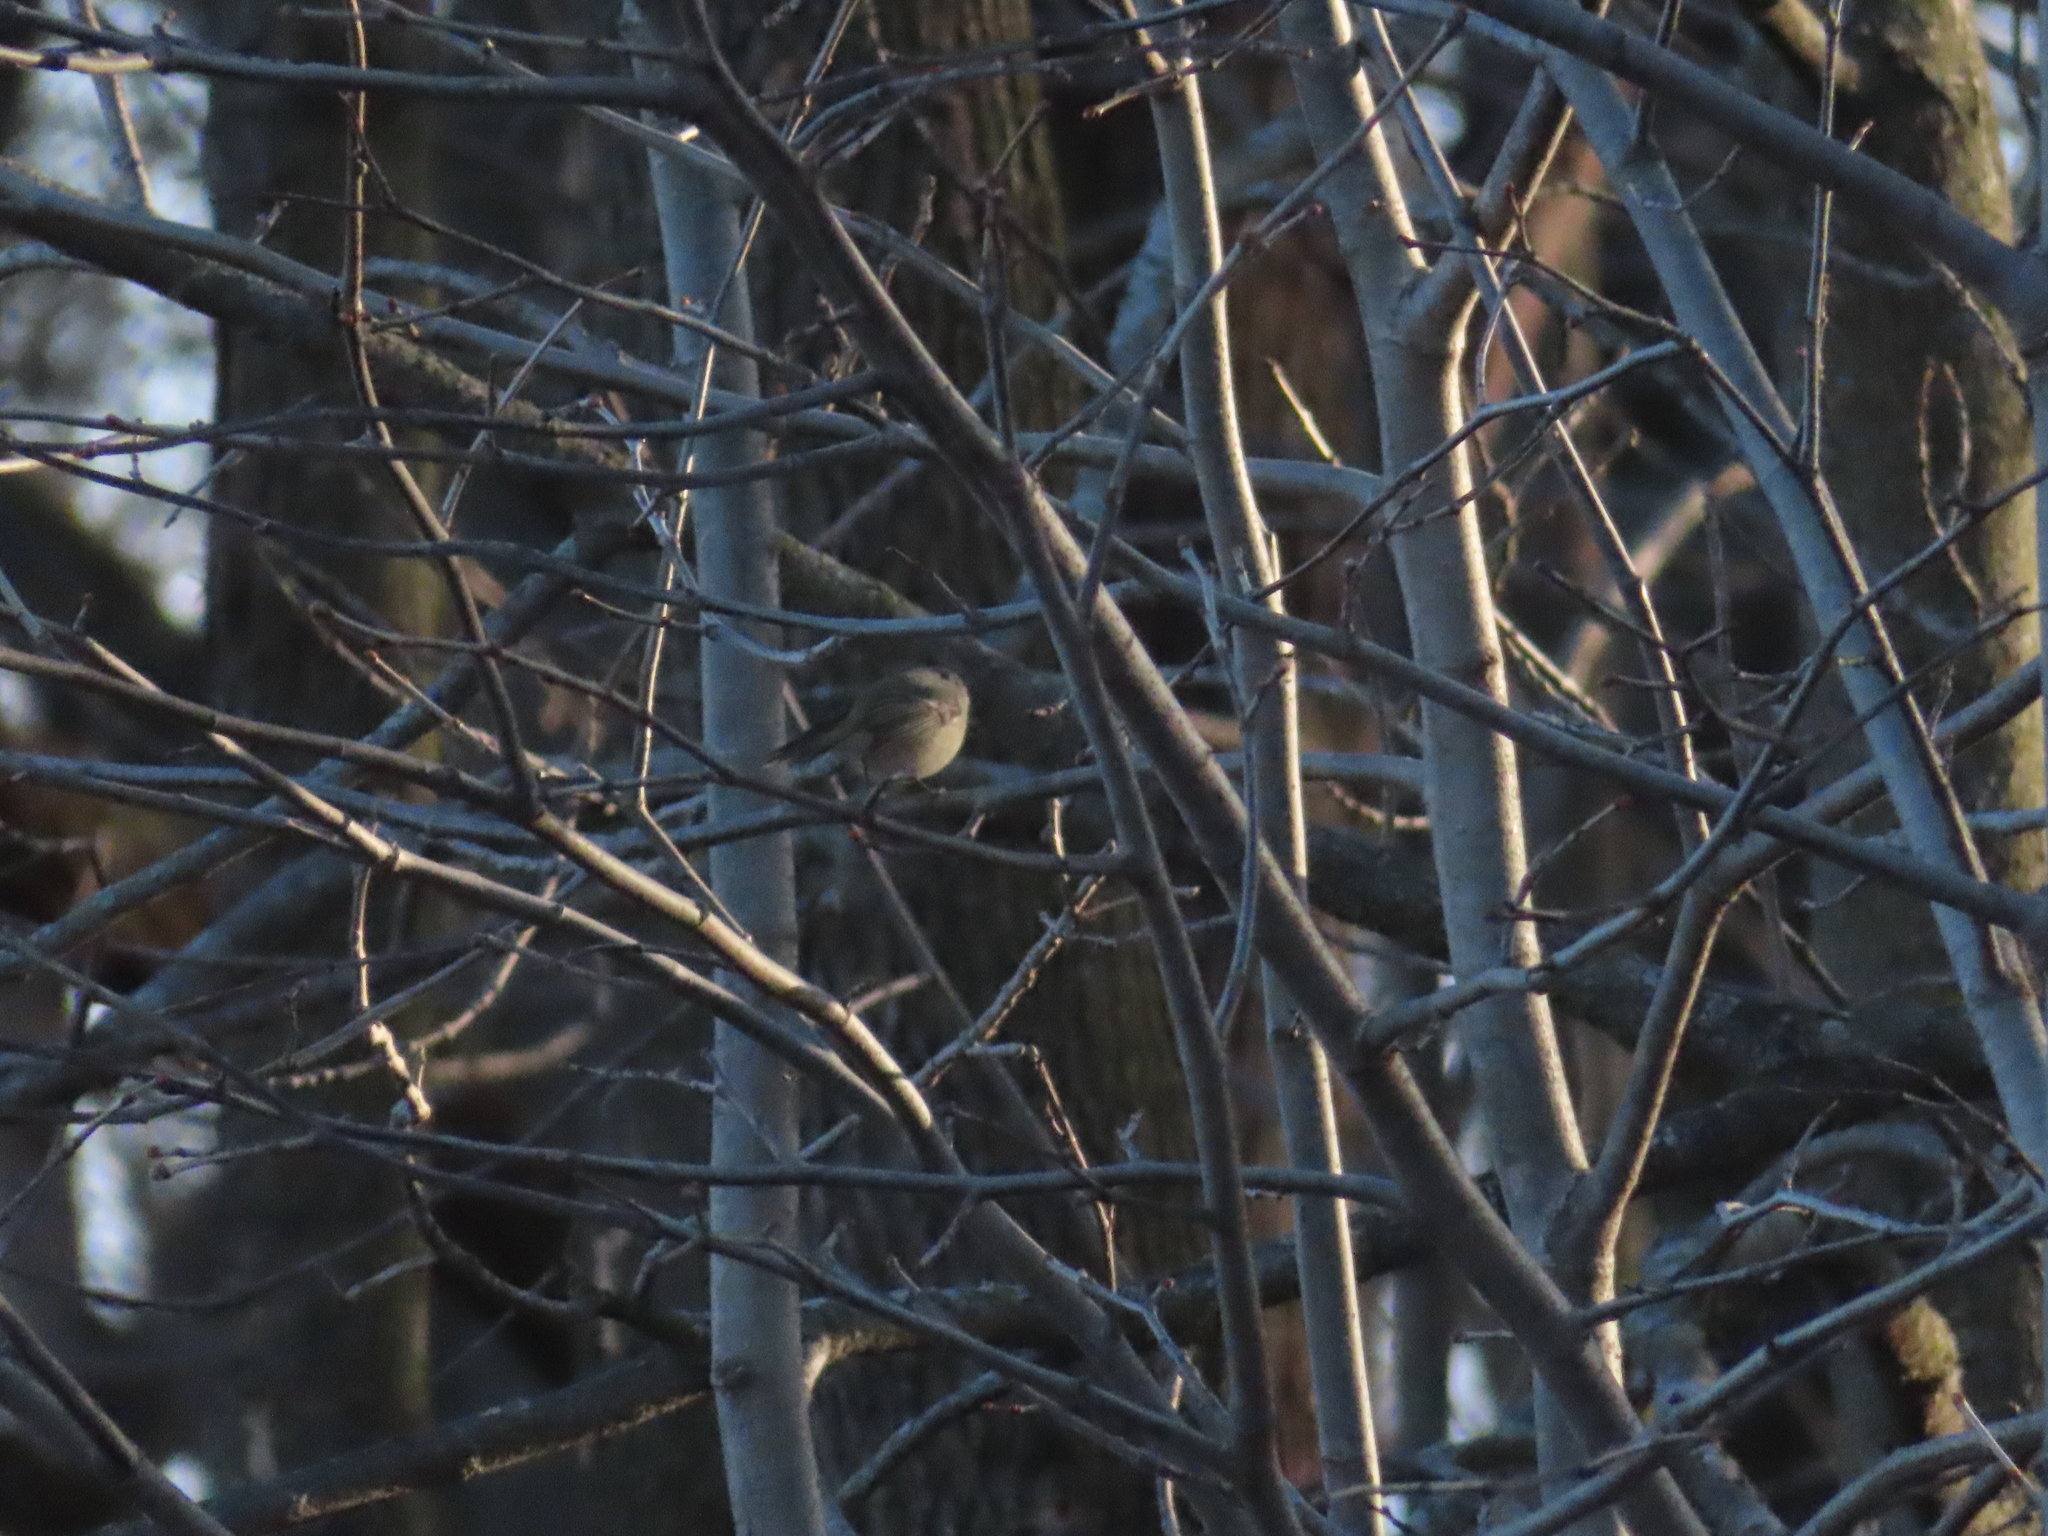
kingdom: Animalia
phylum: Chordata
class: Aves
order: Passeriformes
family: Regulidae
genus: Regulus
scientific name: Regulus calendula
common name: Ruby-crowned kinglet
